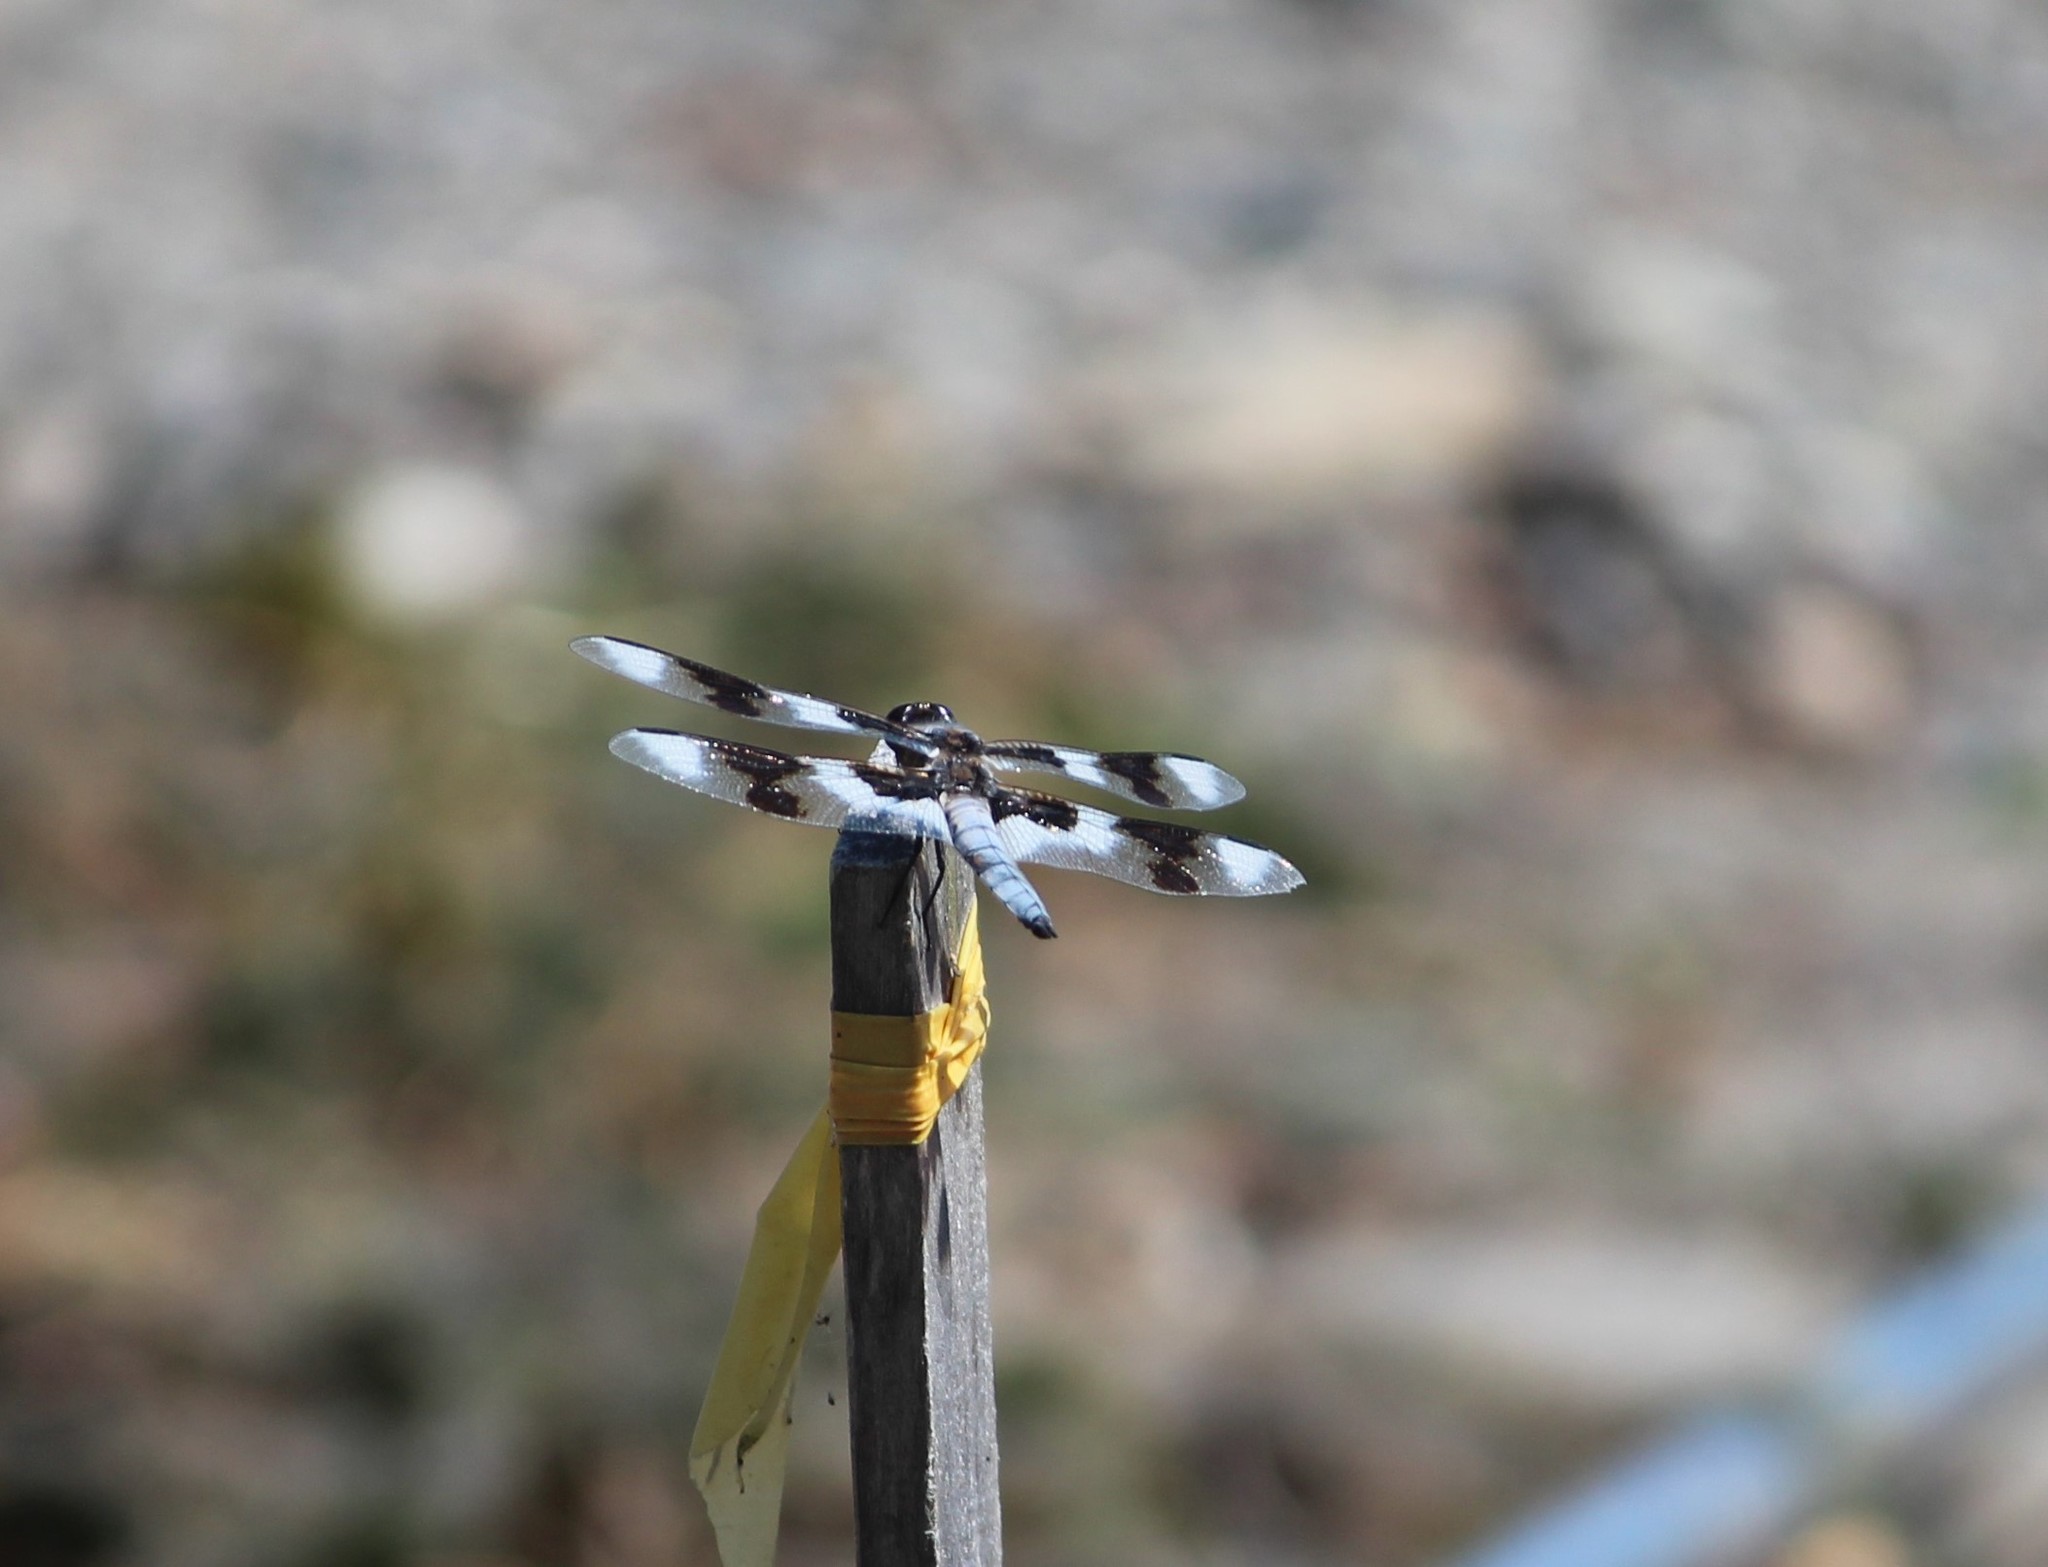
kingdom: Animalia
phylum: Arthropoda
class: Insecta
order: Odonata
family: Libellulidae
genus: Libellula
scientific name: Libellula forensis
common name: Eight-spotted skimmer
